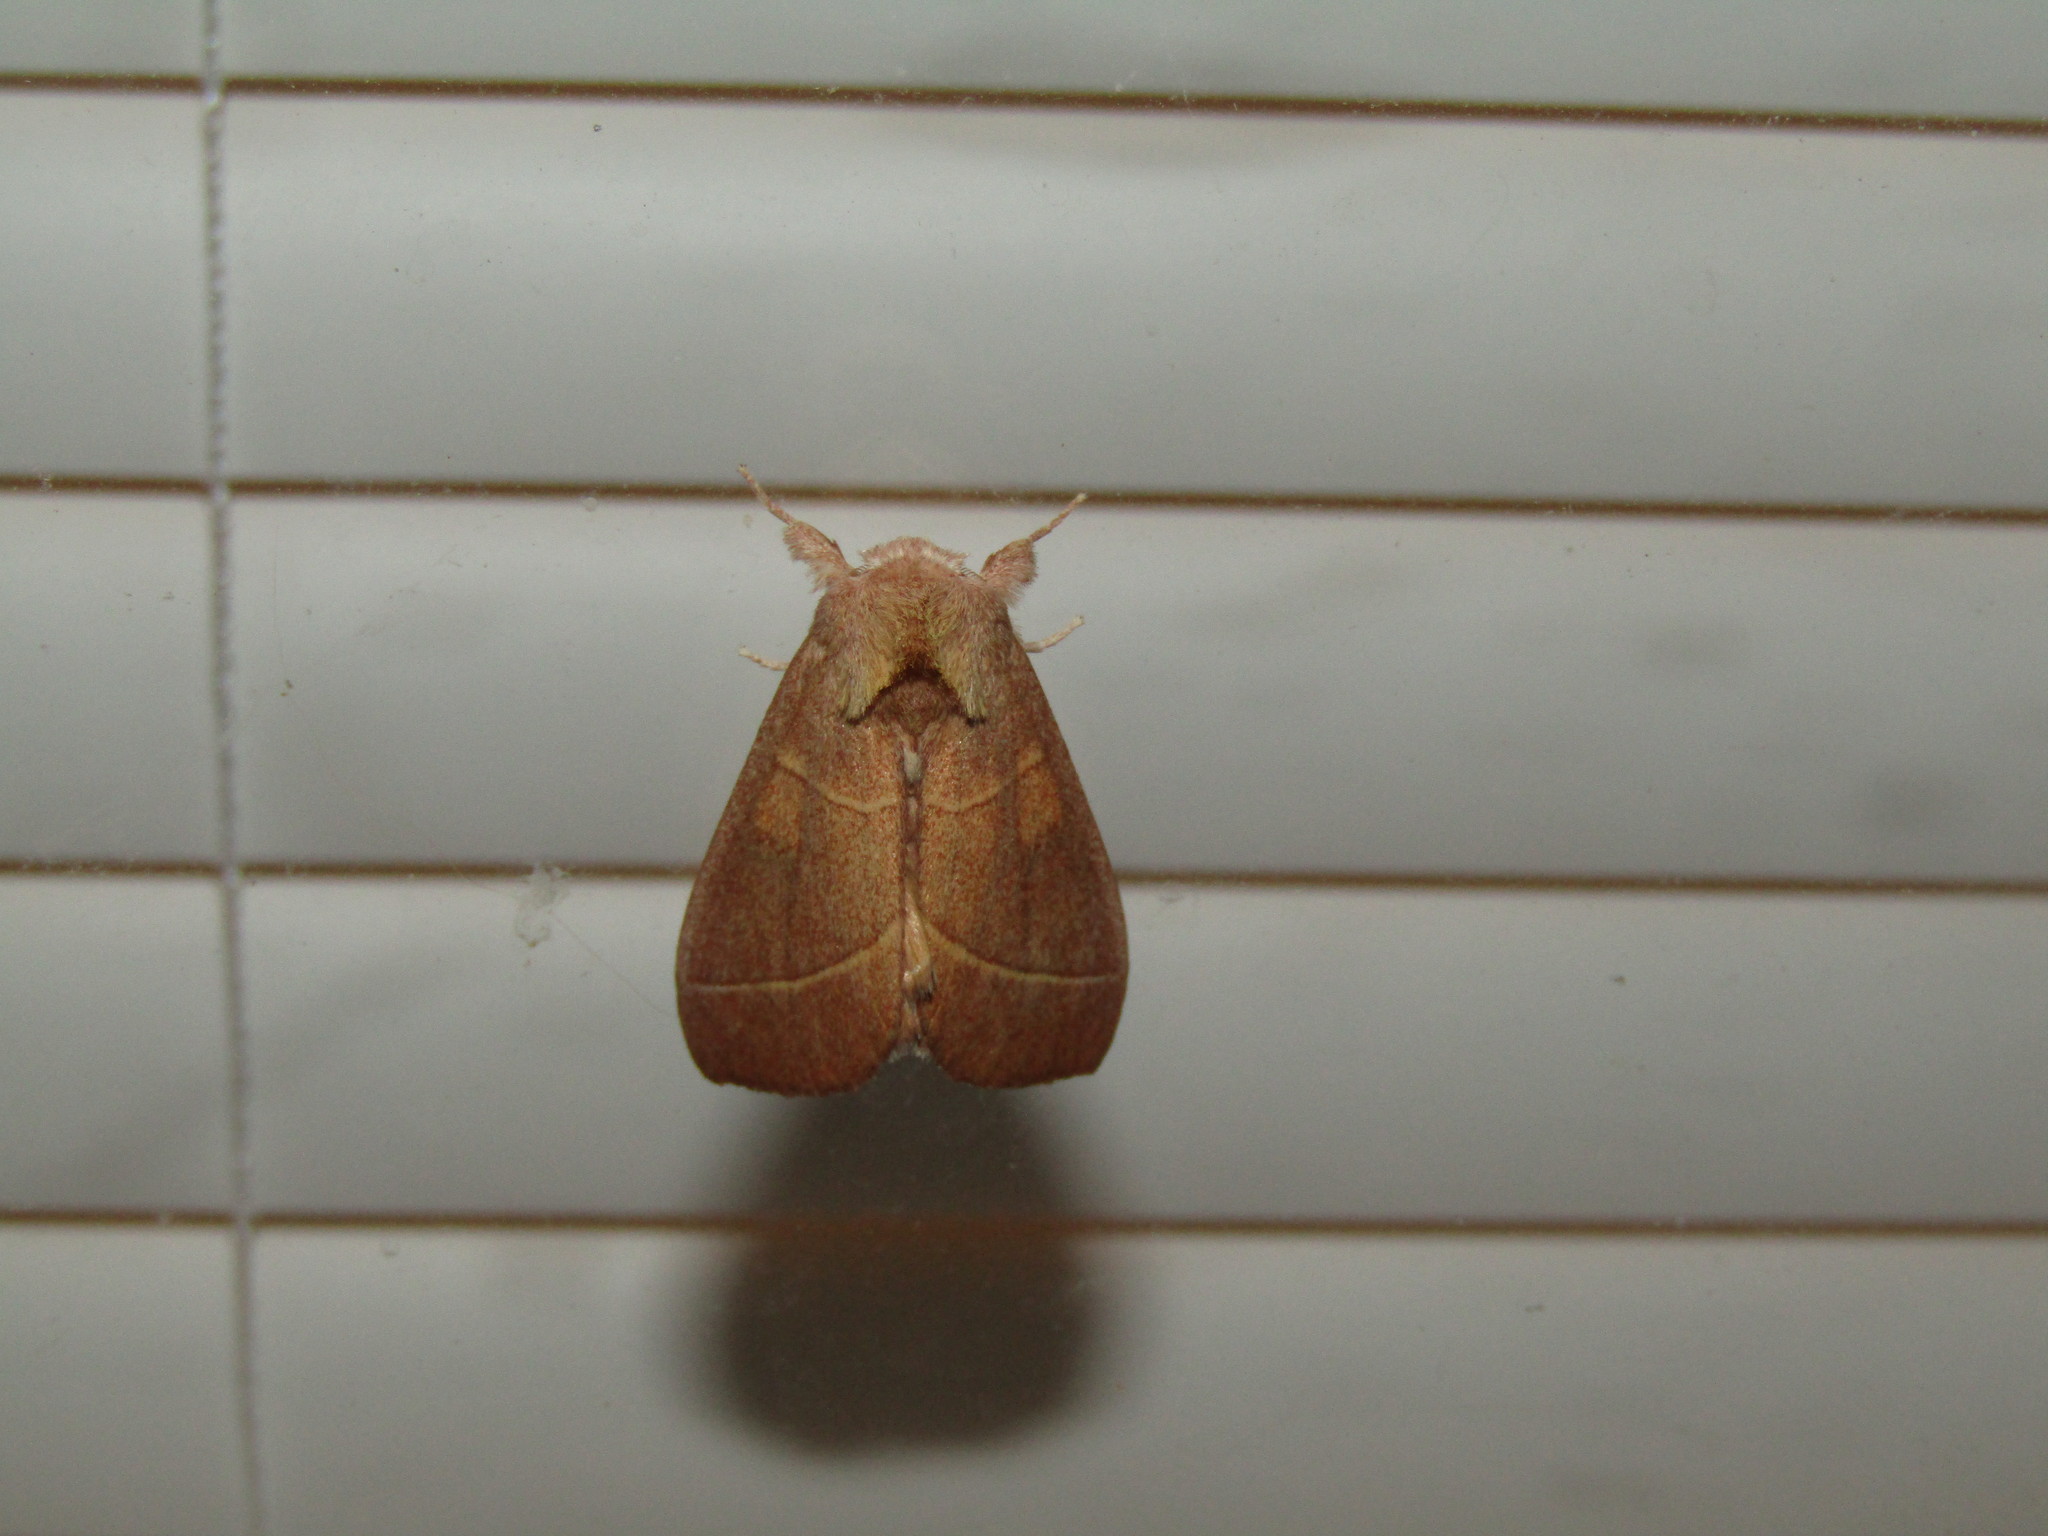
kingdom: Animalia
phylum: Arthropoda
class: Insecta
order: Lepidoptera
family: Notodontidae
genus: Nadata
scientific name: Nadata gibbosa
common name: White-dotted prominent
